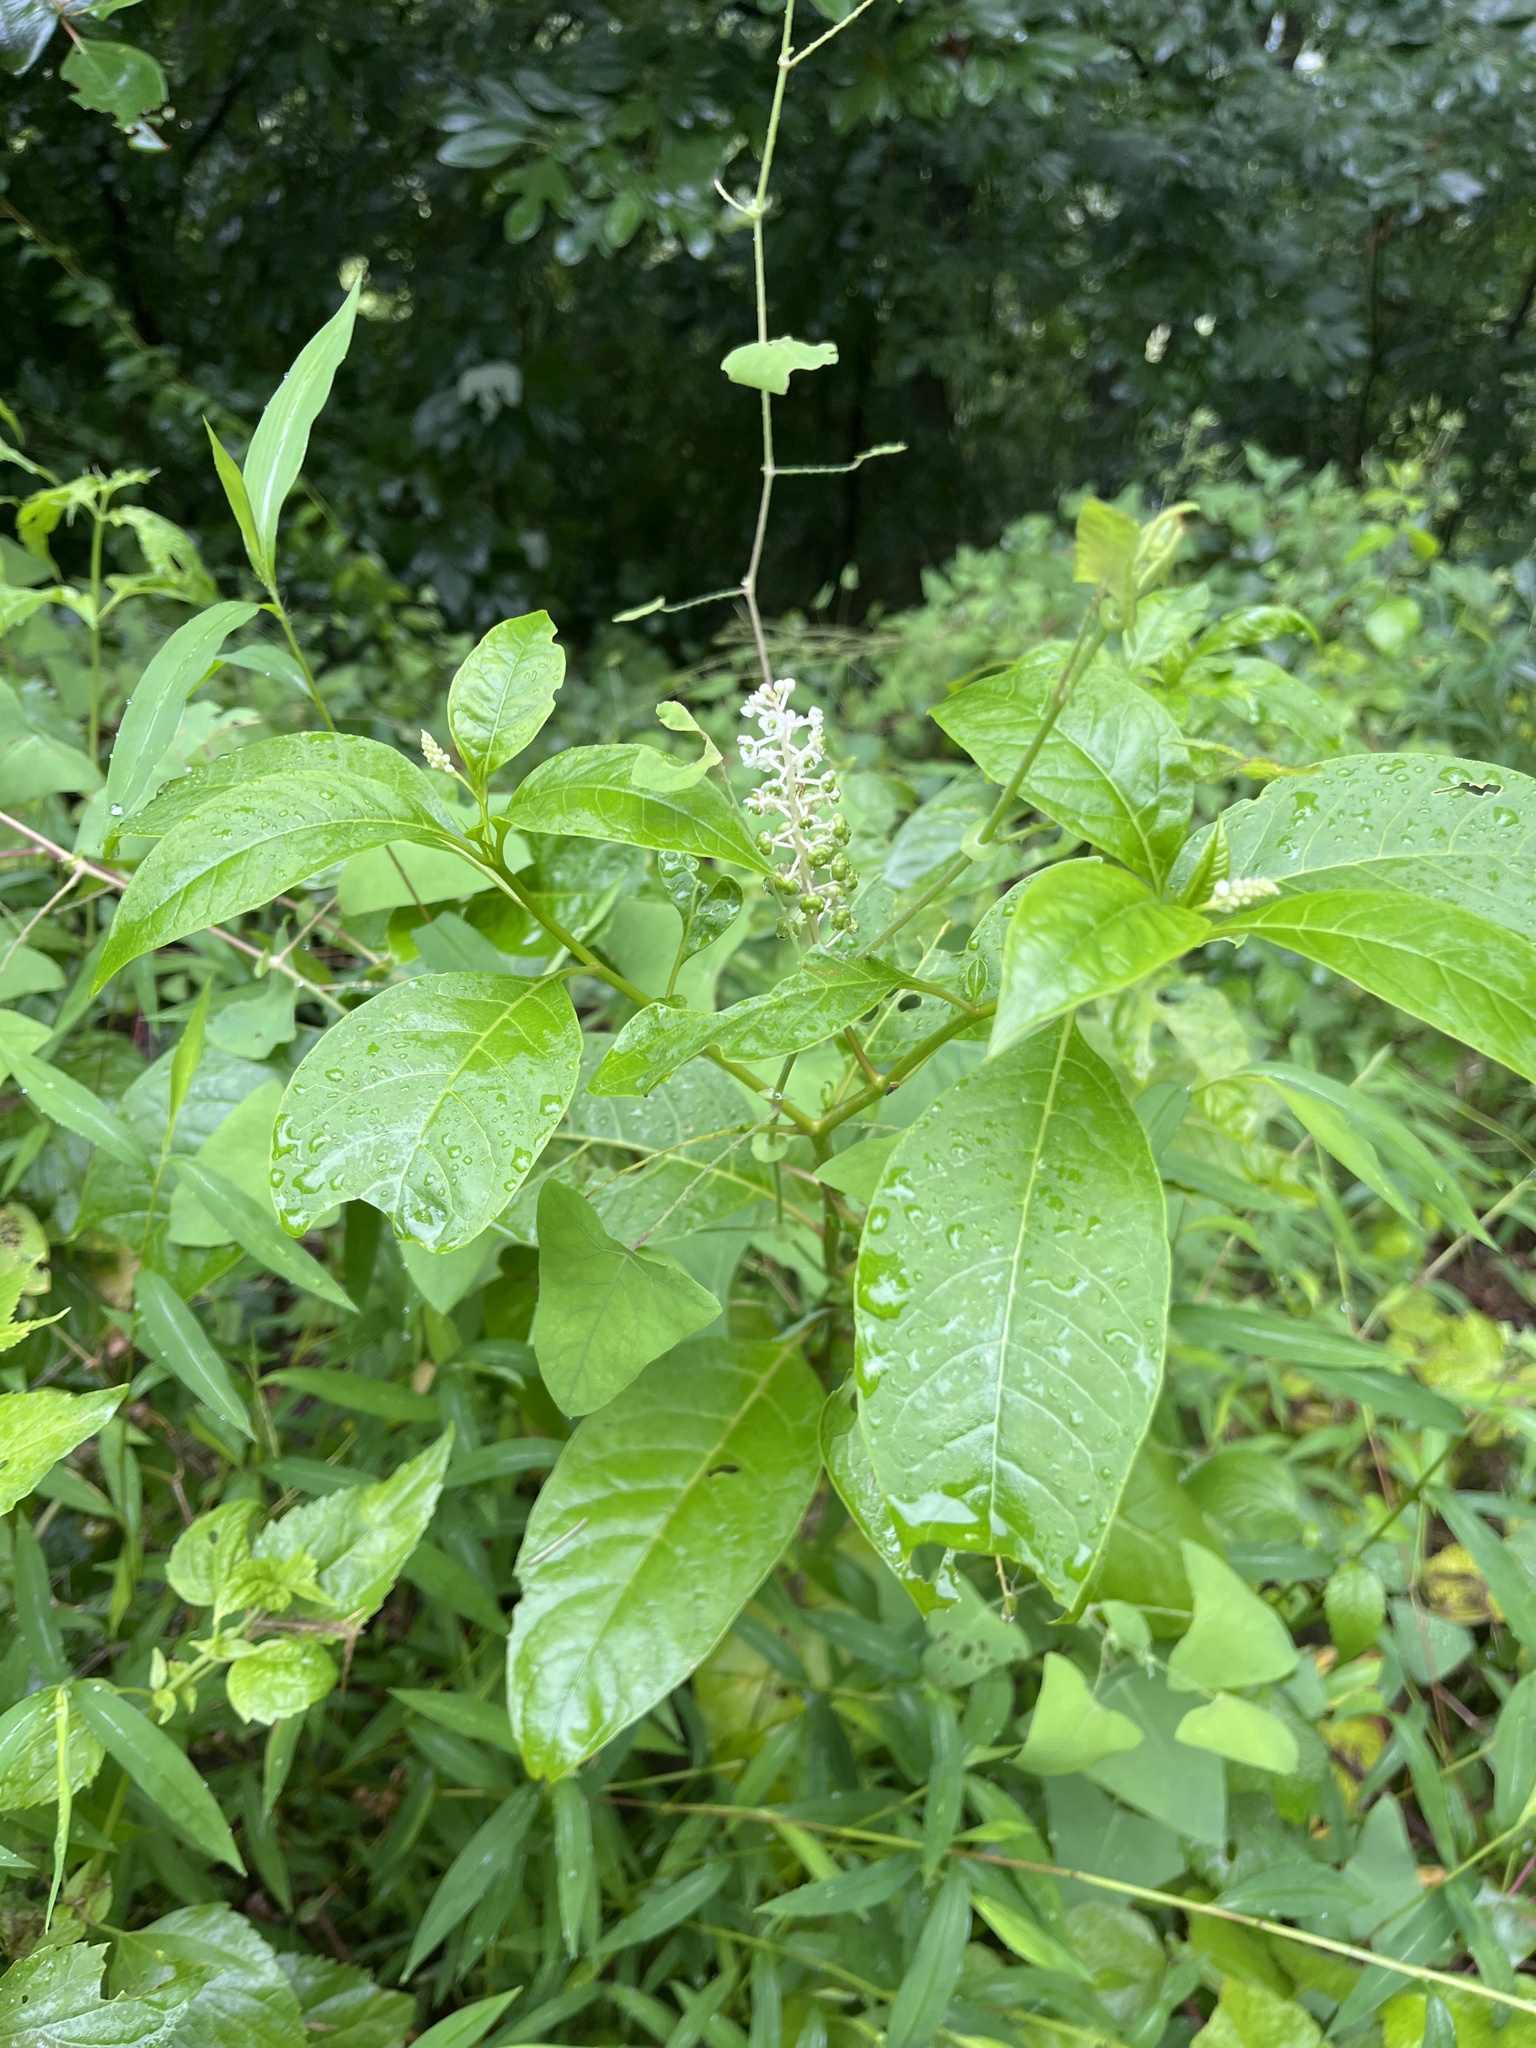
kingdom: Plantae
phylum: Tracheophyta
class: Magnoliopsida
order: Caryophyllales
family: Phytolaccaceae
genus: Phytolacca
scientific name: Phytolacca americana
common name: American pokeweed
